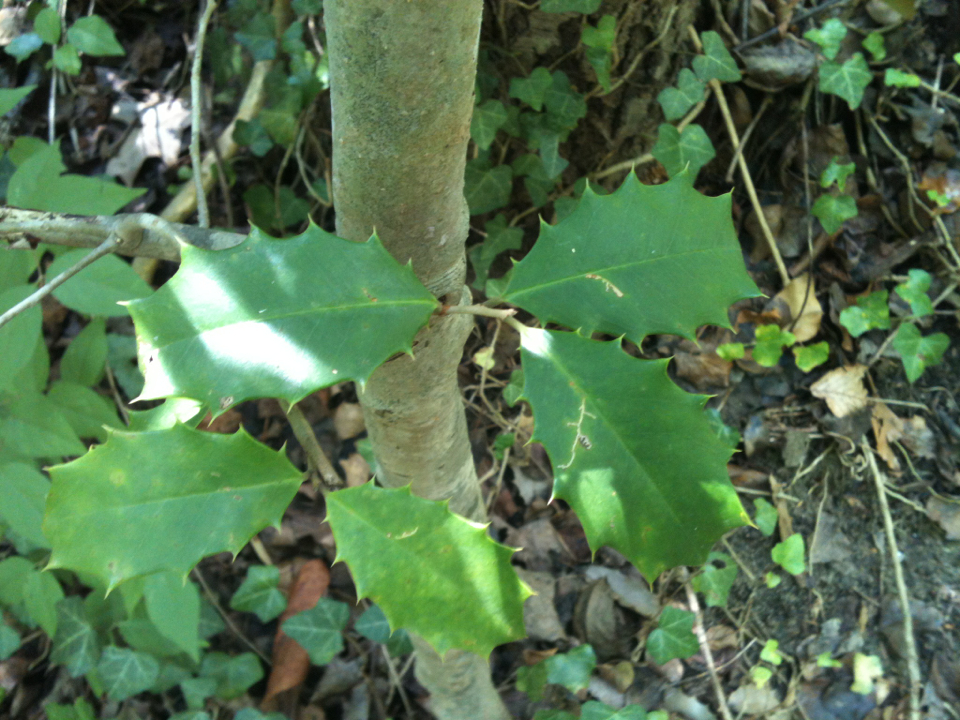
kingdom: Plantae
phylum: Tracheophyta
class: Magnoliopsida
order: Aquifoliales
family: Aquifoliaceae
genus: Ilex
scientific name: Ilex opaca
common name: American holly
